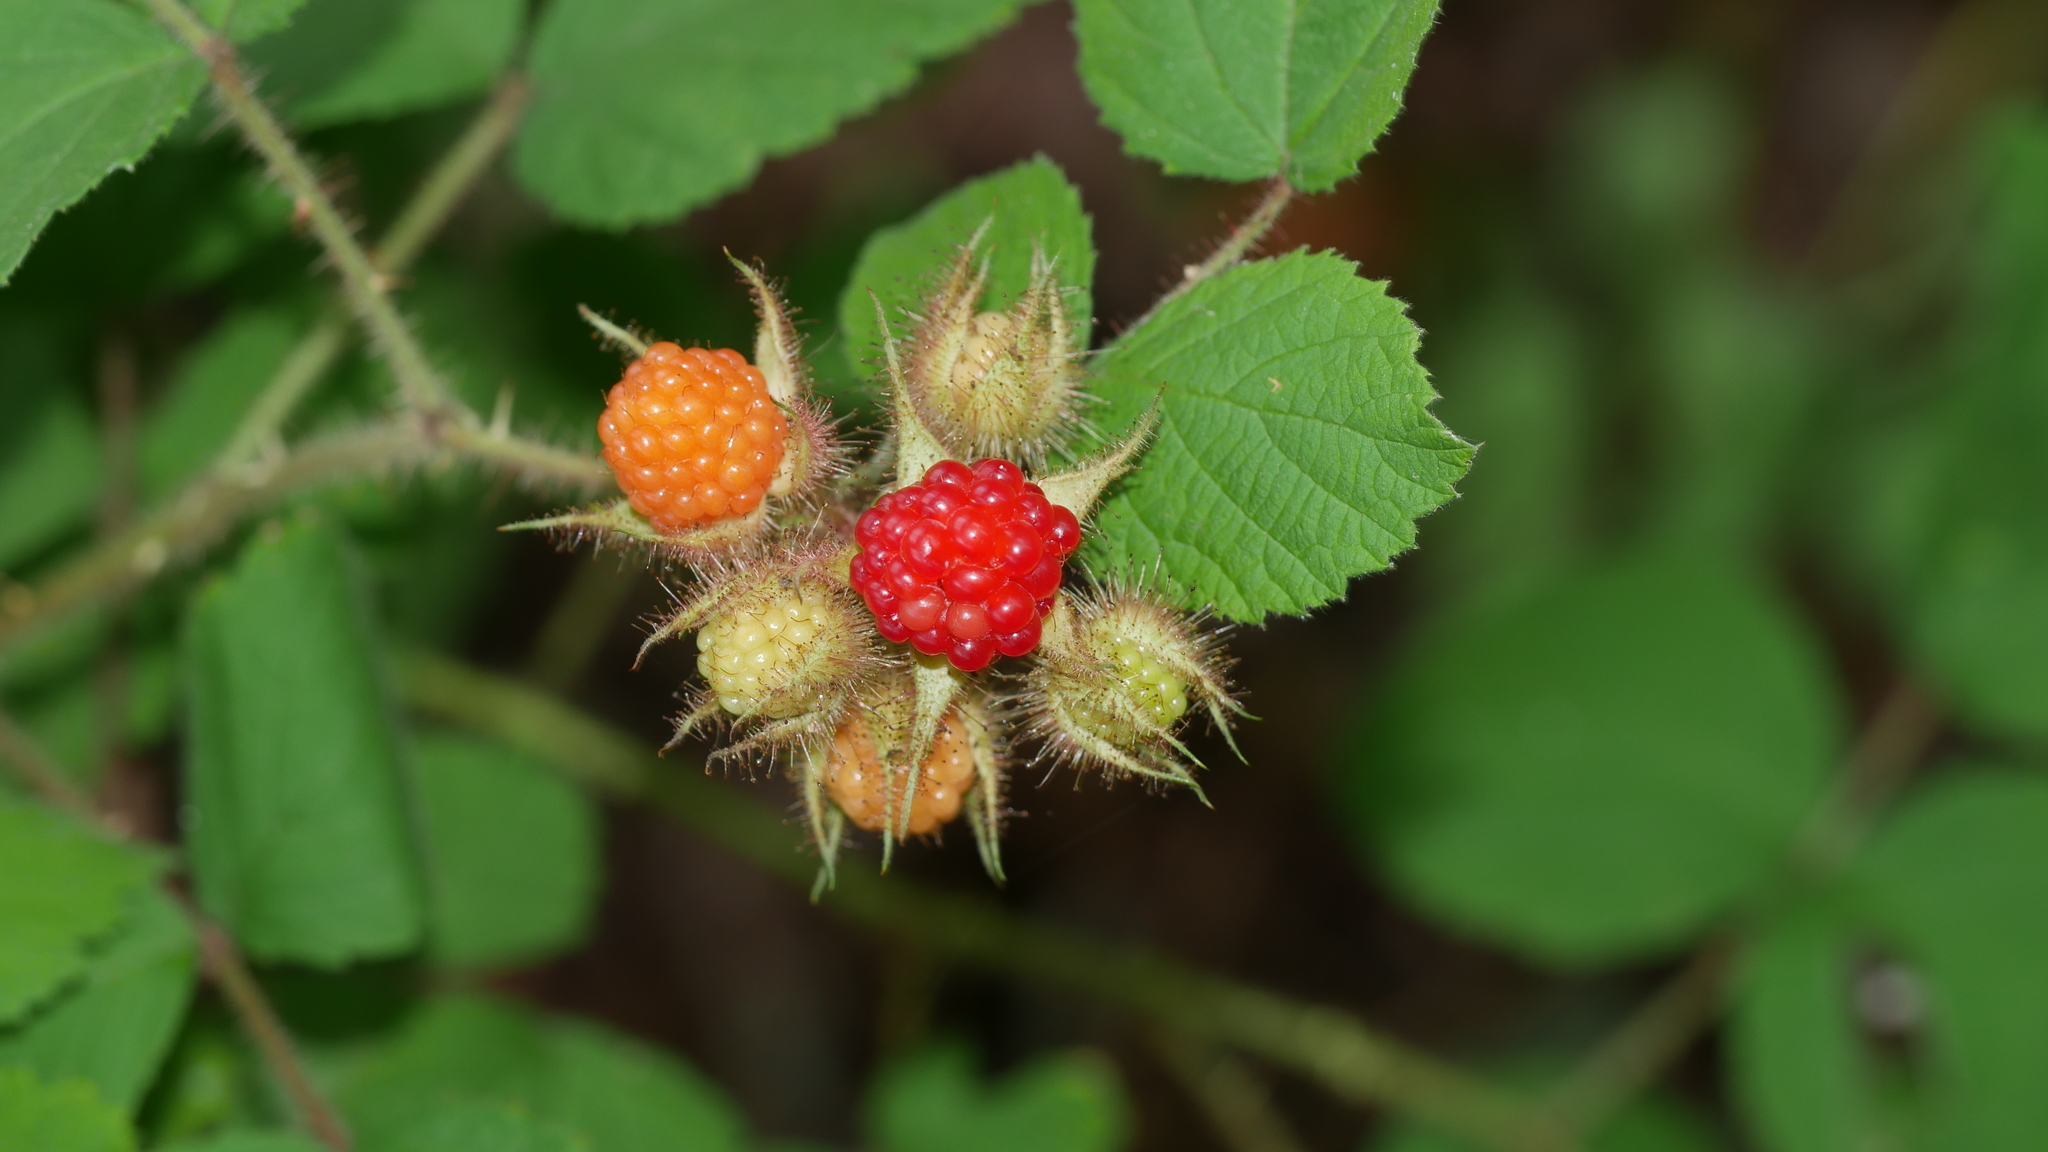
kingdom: Plantae
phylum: Tracheophyta
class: Magnoliopsida
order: Rosales
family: Rosaceae
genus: Rubus
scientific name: Rubus phoenicolasius
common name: Japanese wineberry
